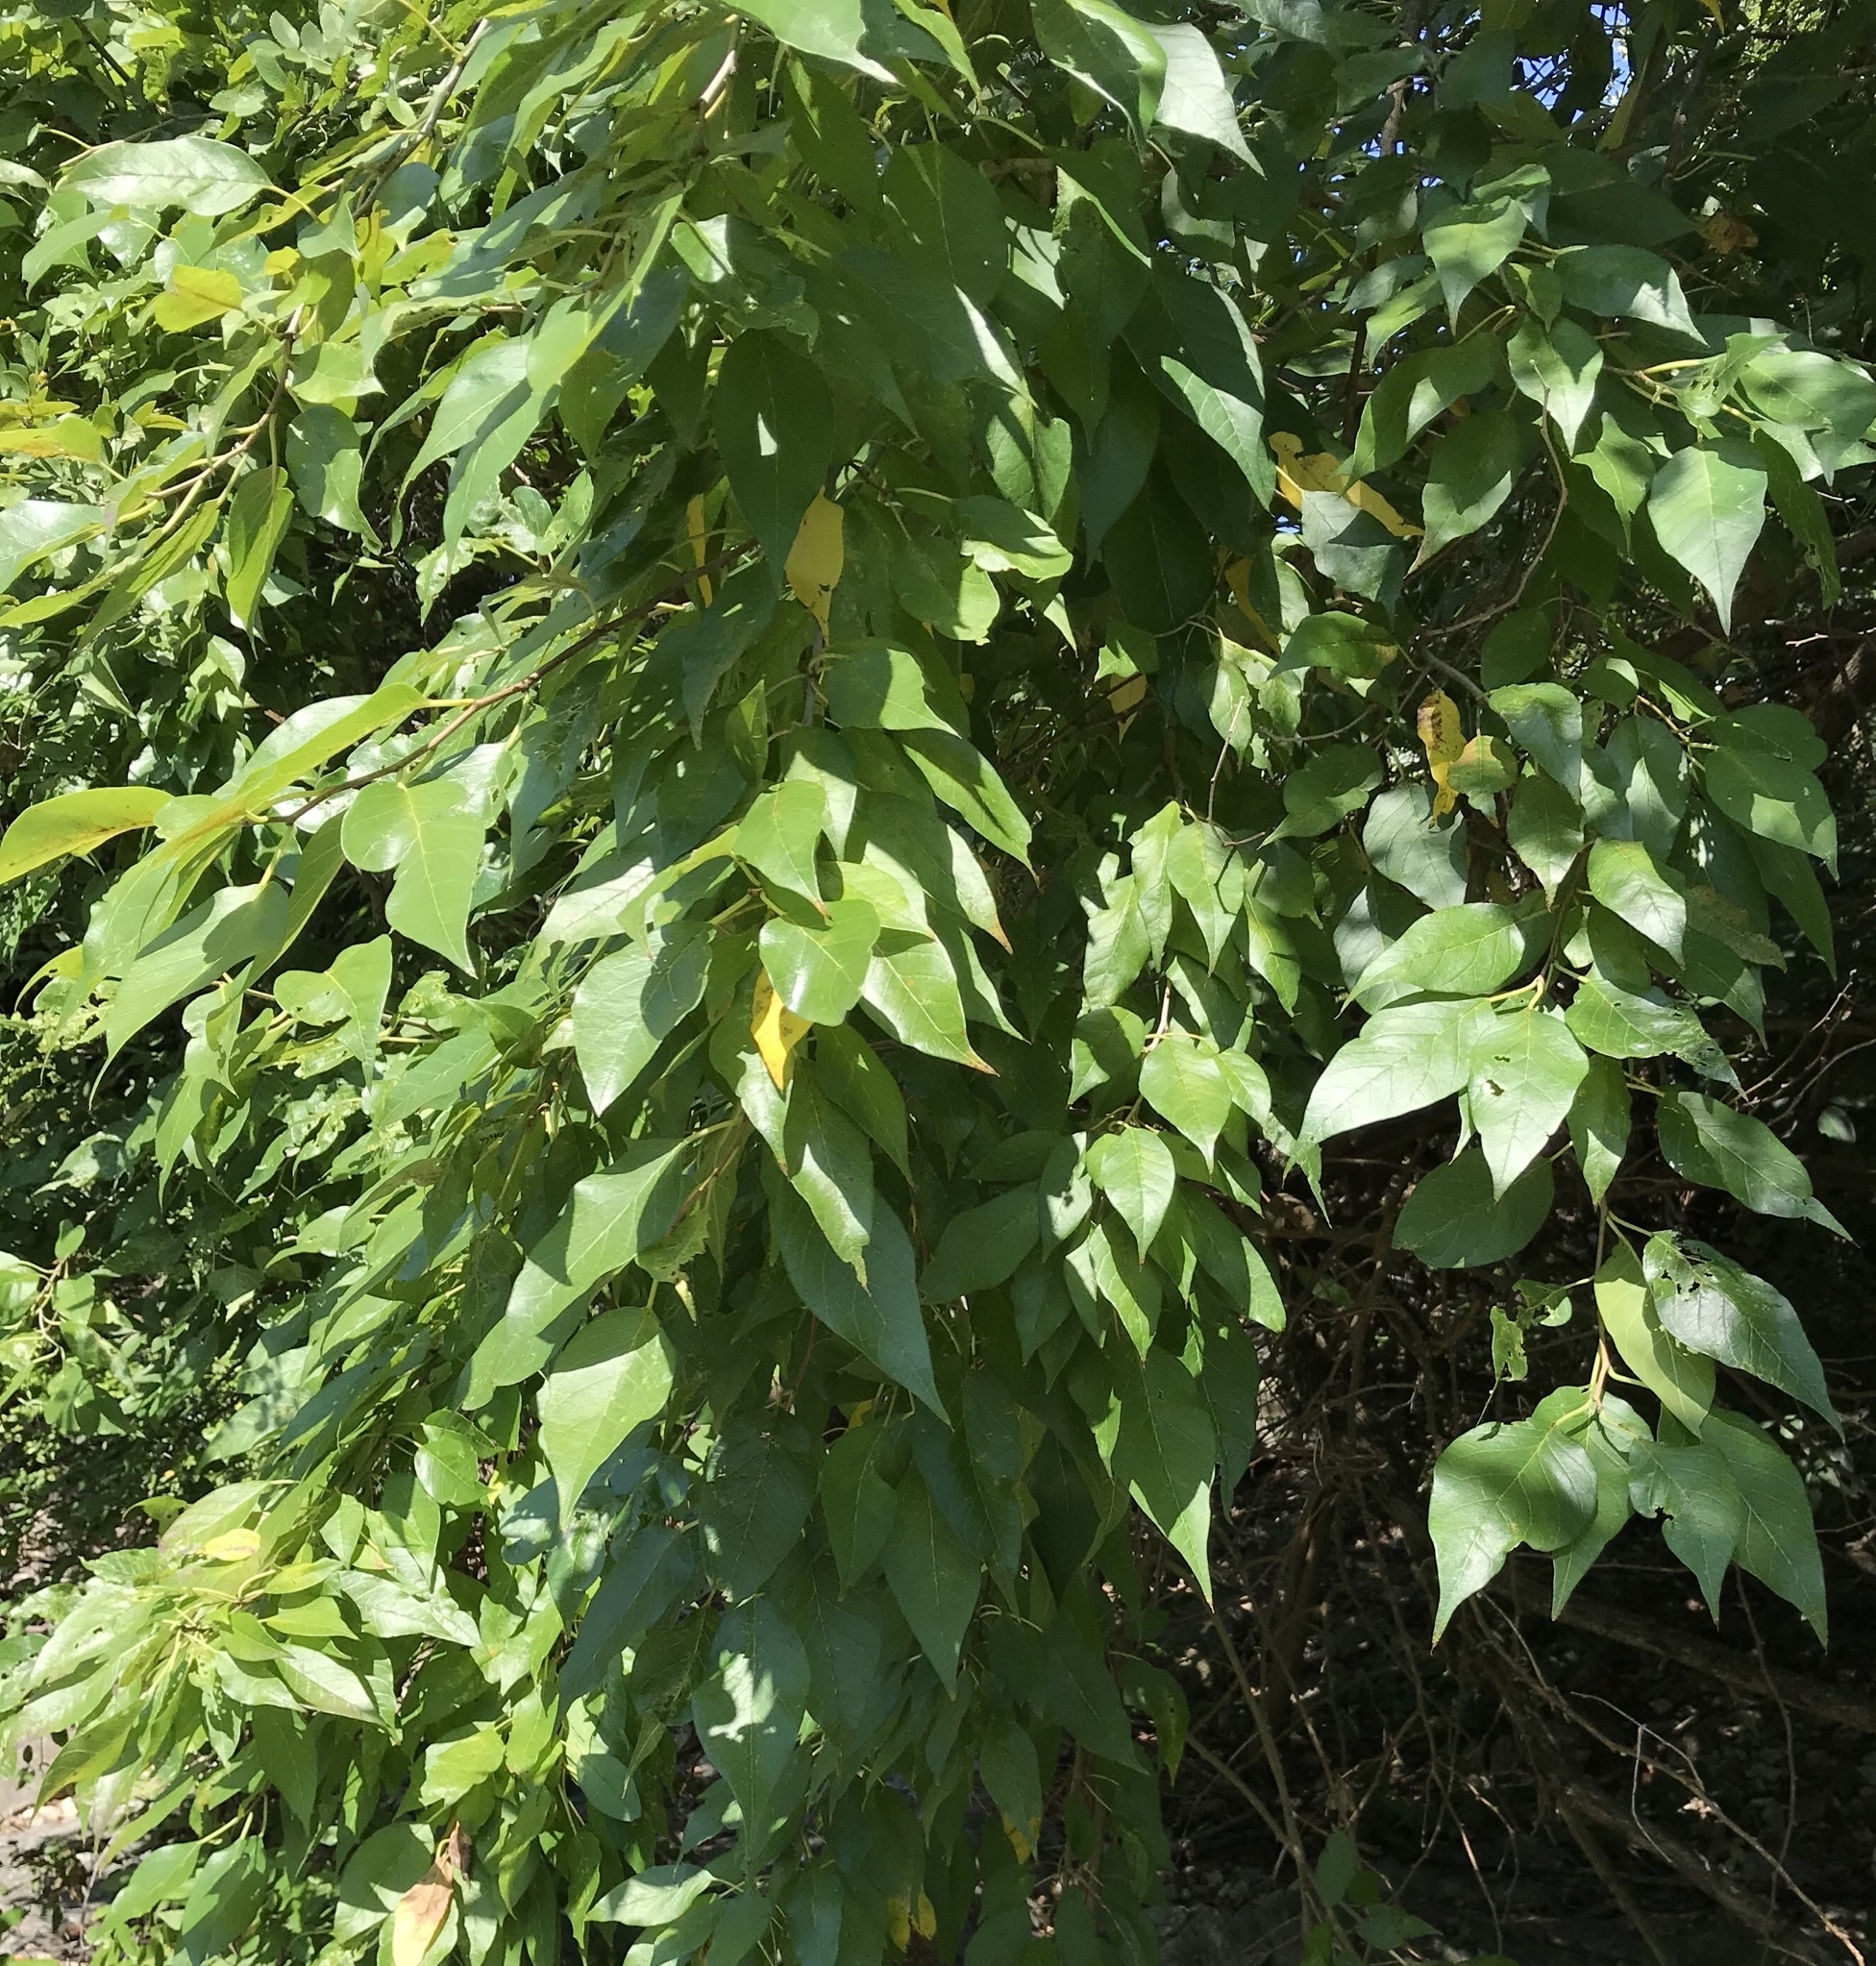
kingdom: Plantae
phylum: Tracheophyta
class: Magnoliopsida
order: Rosales
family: Moraceae
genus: Maclura
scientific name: Maclura pomifera
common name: Osage-orange
